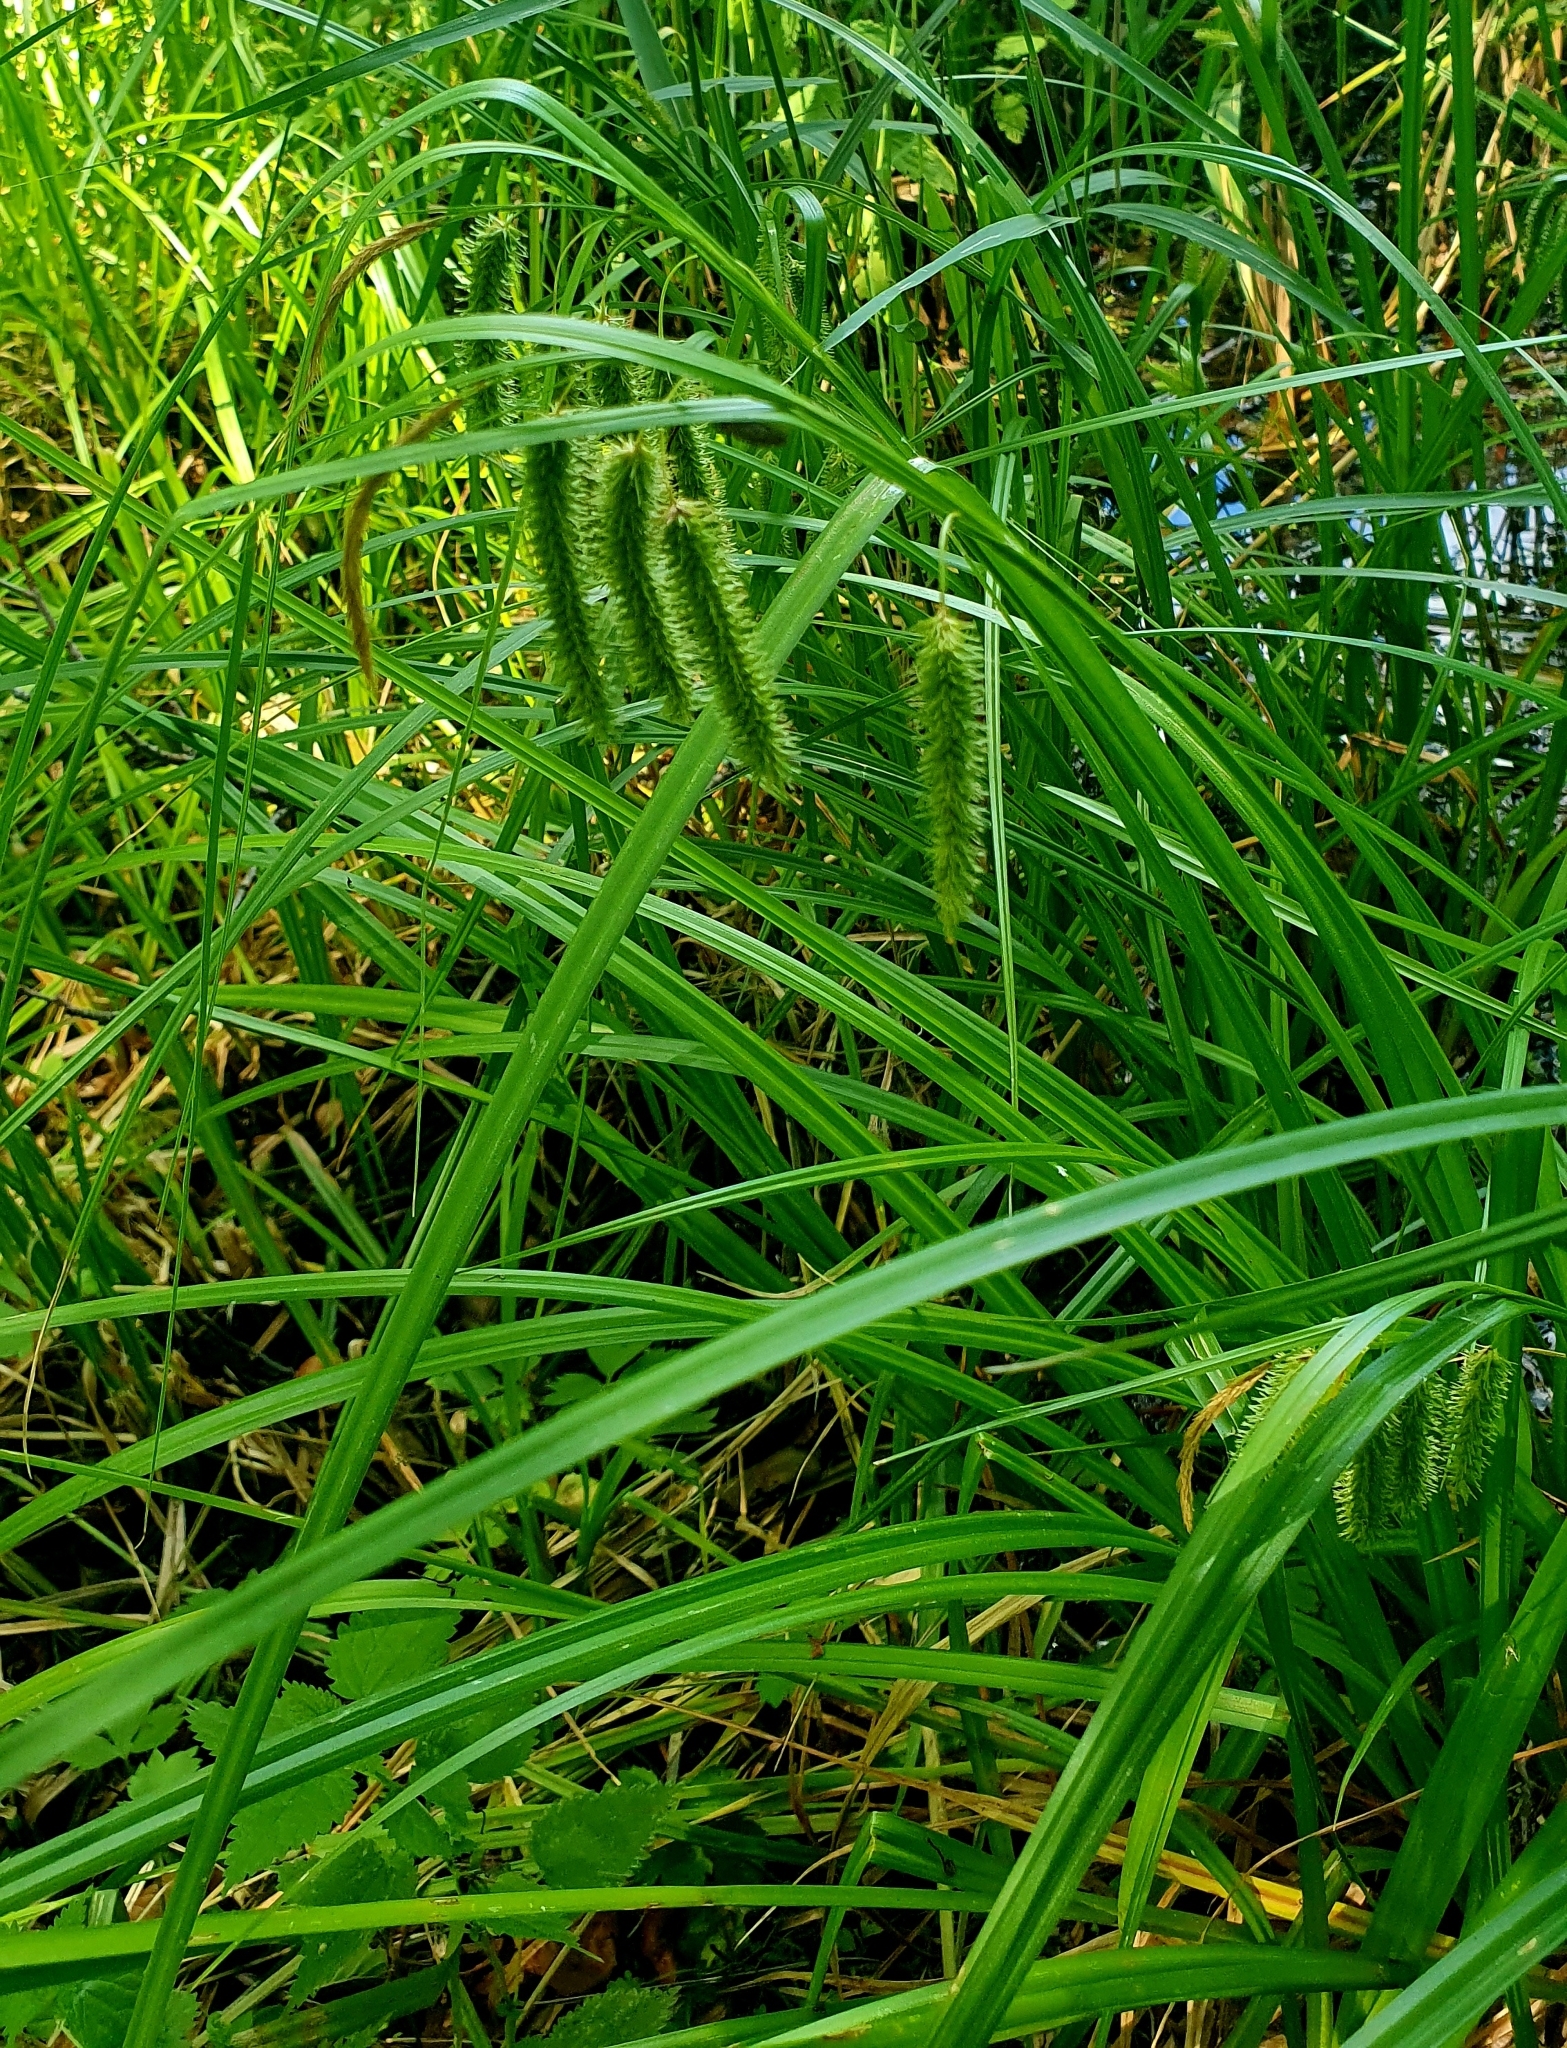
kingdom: Plantae
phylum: Tracheophyta
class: Liliopsida
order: Poales
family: Cyperaceae
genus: Carex
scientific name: Carex pseudocyperus
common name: Cyperus sedge
